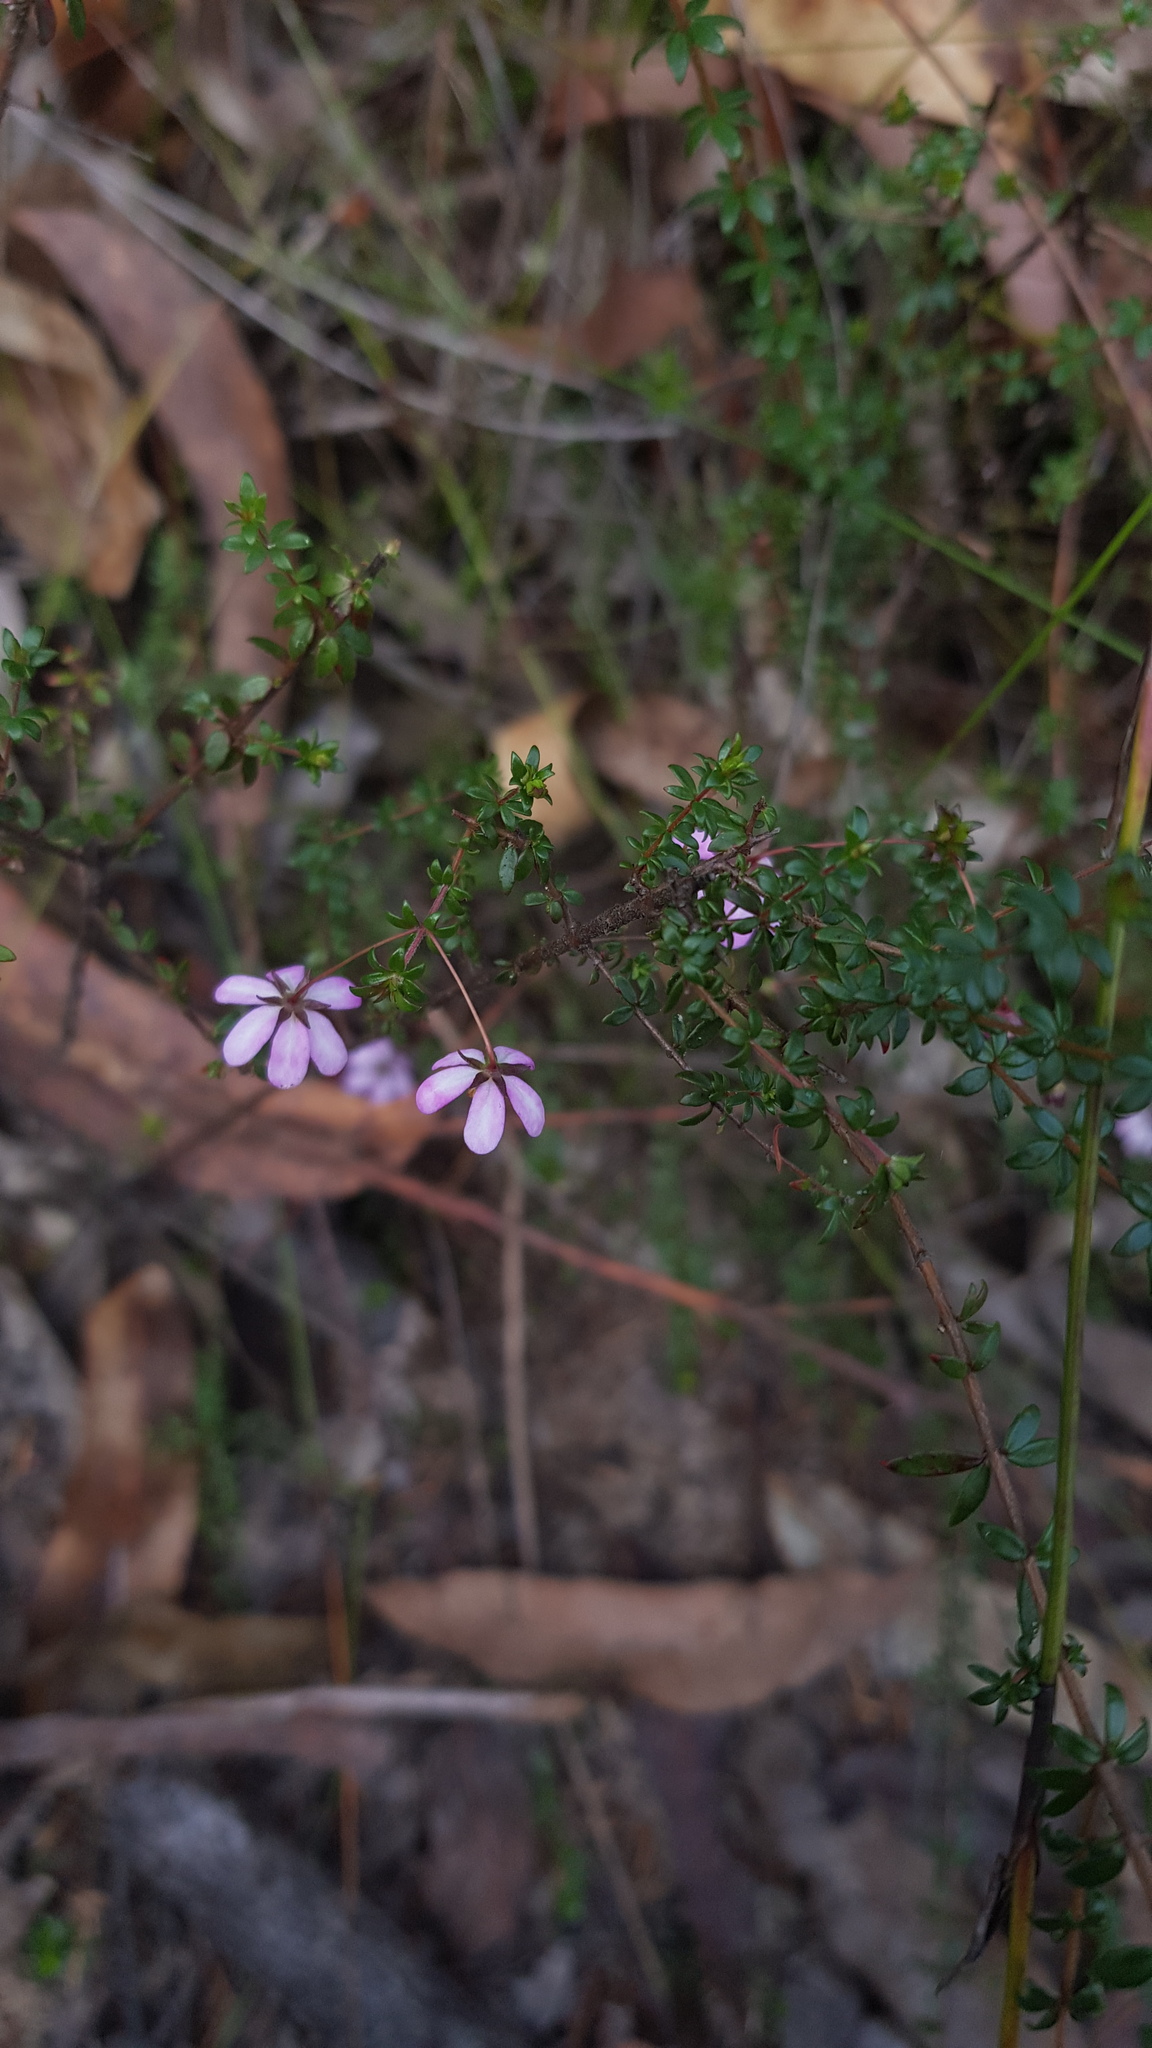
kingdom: Plantae
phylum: Tracheophyta
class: Magnoliopsida
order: Oxalidales
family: Cunoniaceae
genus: Bauera
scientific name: Bauera rubioides
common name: River-rose
